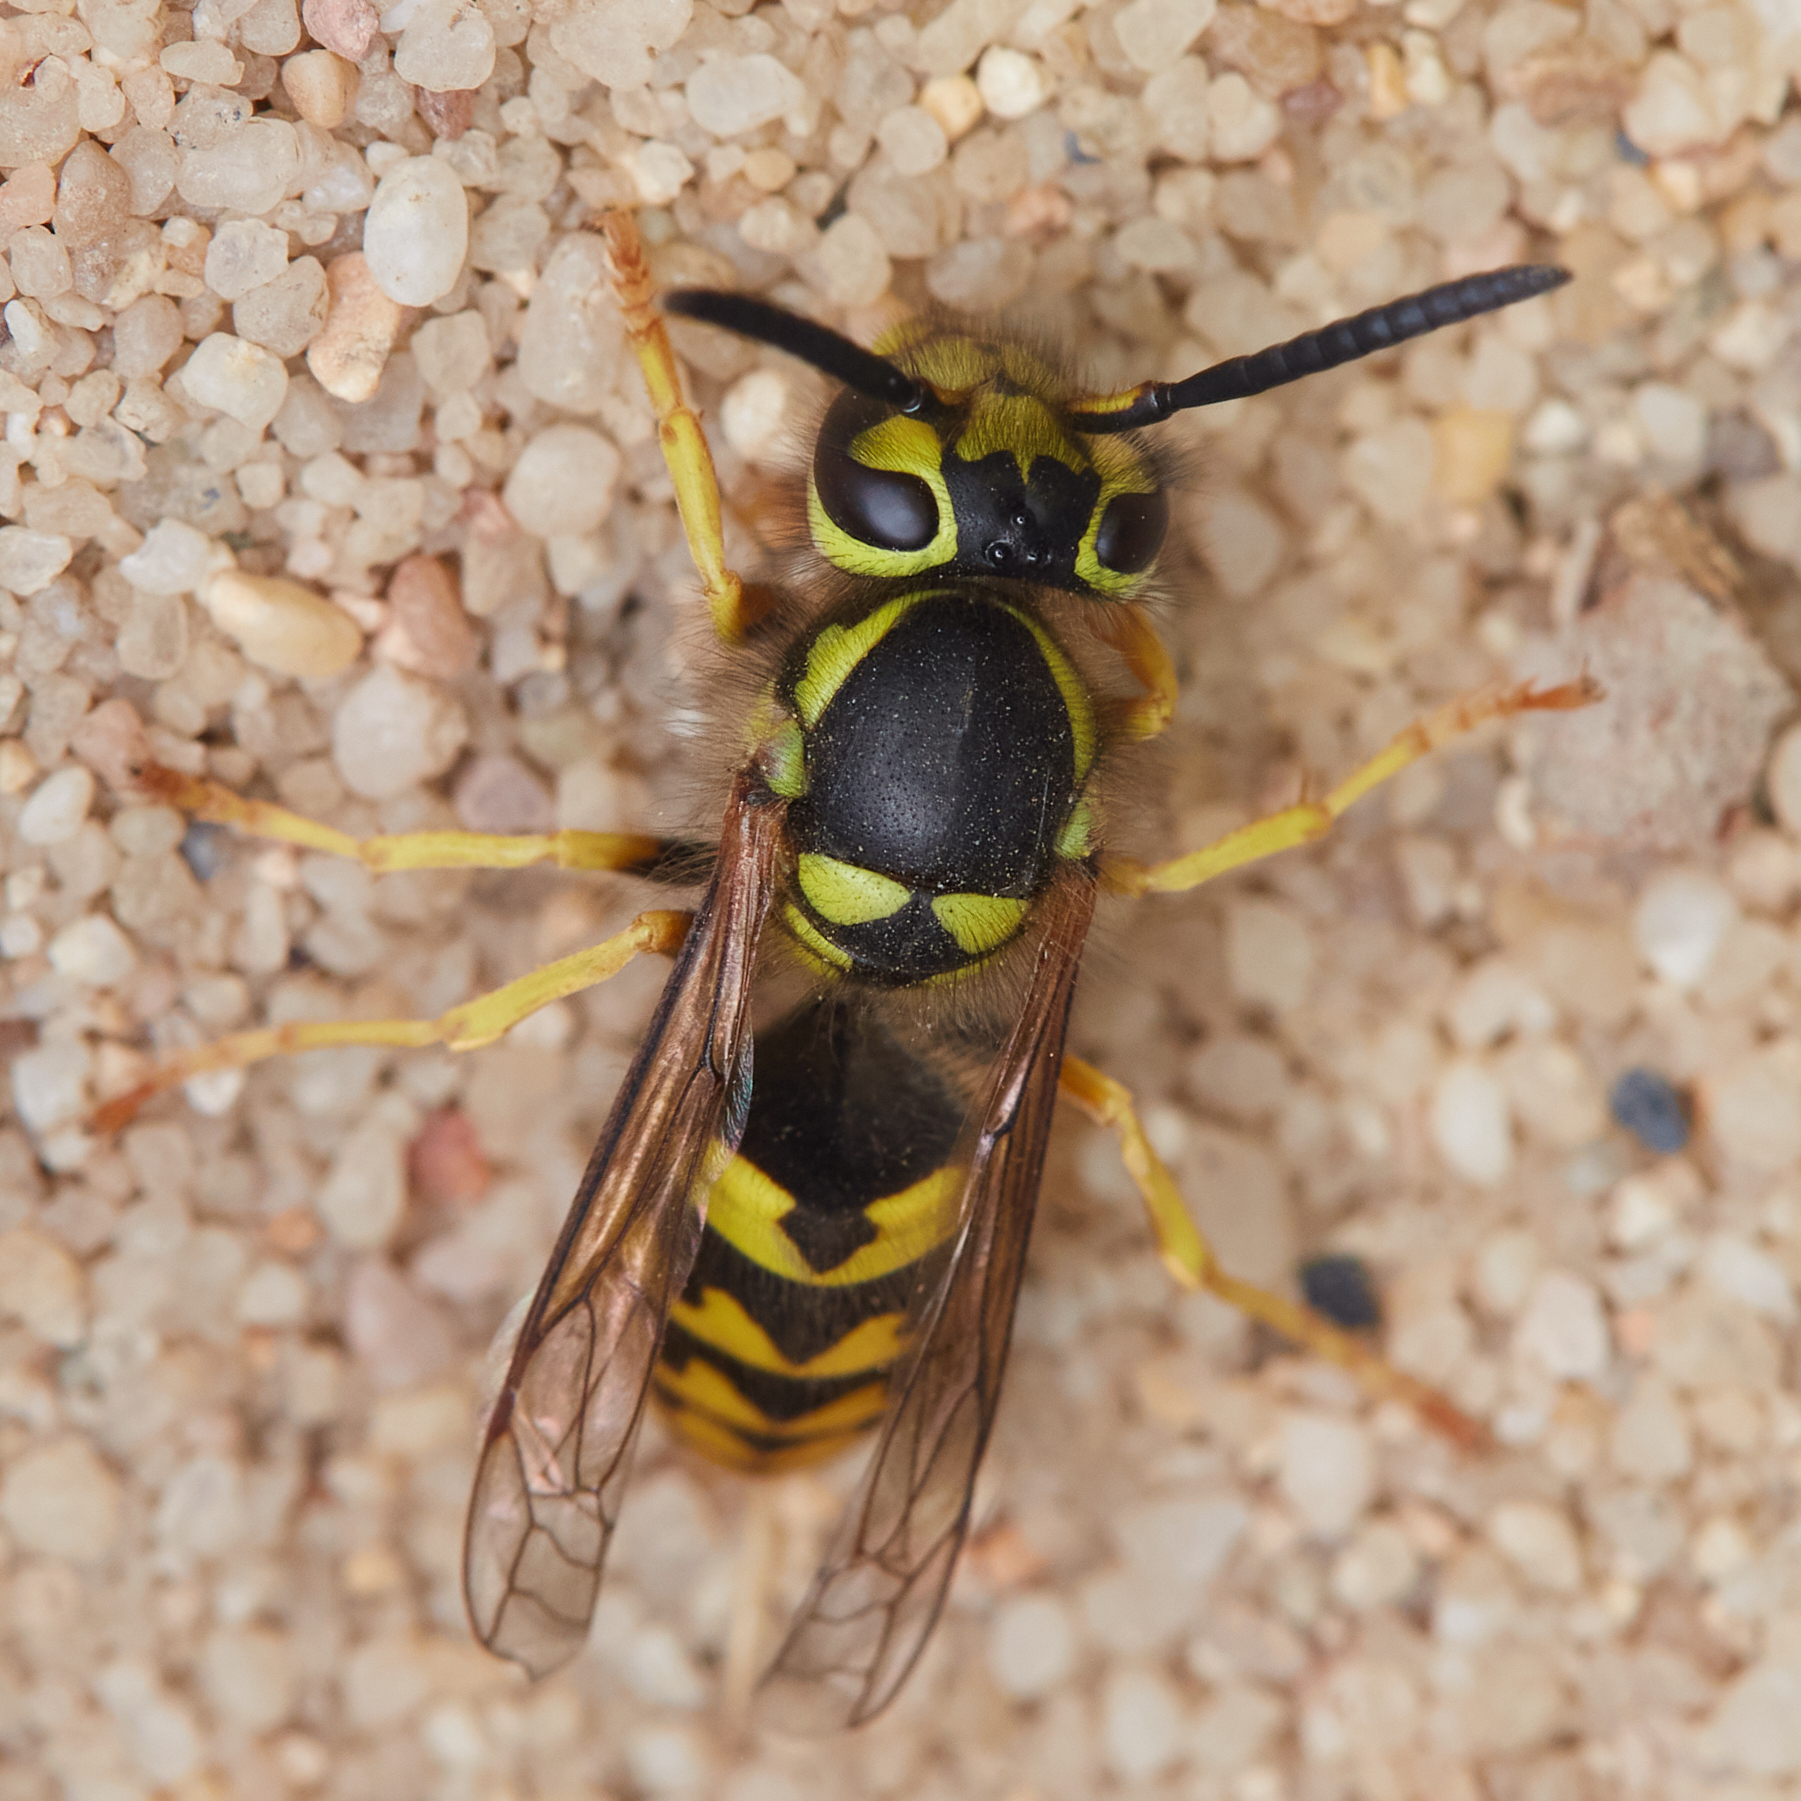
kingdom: Animalia
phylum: Arthropoda
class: Insecta
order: Hymenoptera
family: Vespidae
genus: Vespula
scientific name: Vespula pensylvanica
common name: Western yellowjacket
